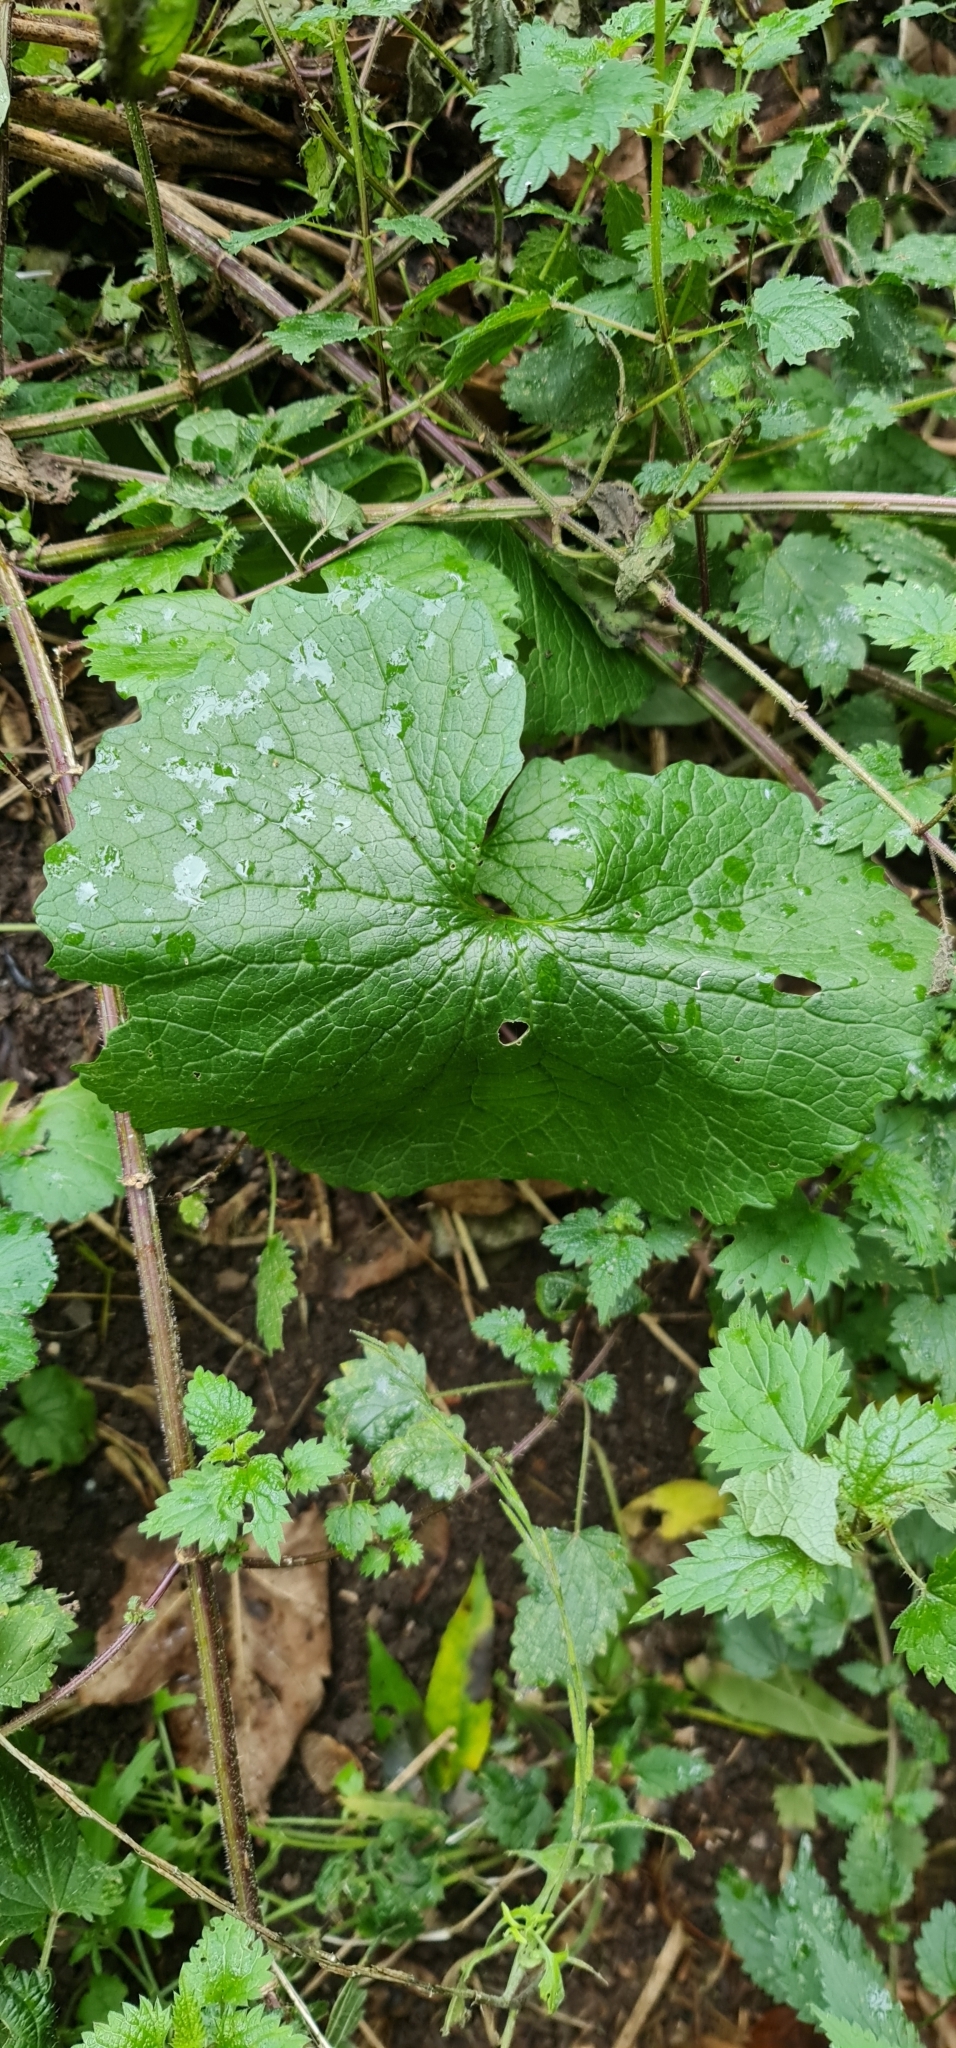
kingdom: Plantae
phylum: Tracheophyta
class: Magnoliopsida
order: Brassicales
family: Brassicaceae
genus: Alliaria
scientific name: Alliaria petiolata
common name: Garlic mustard
